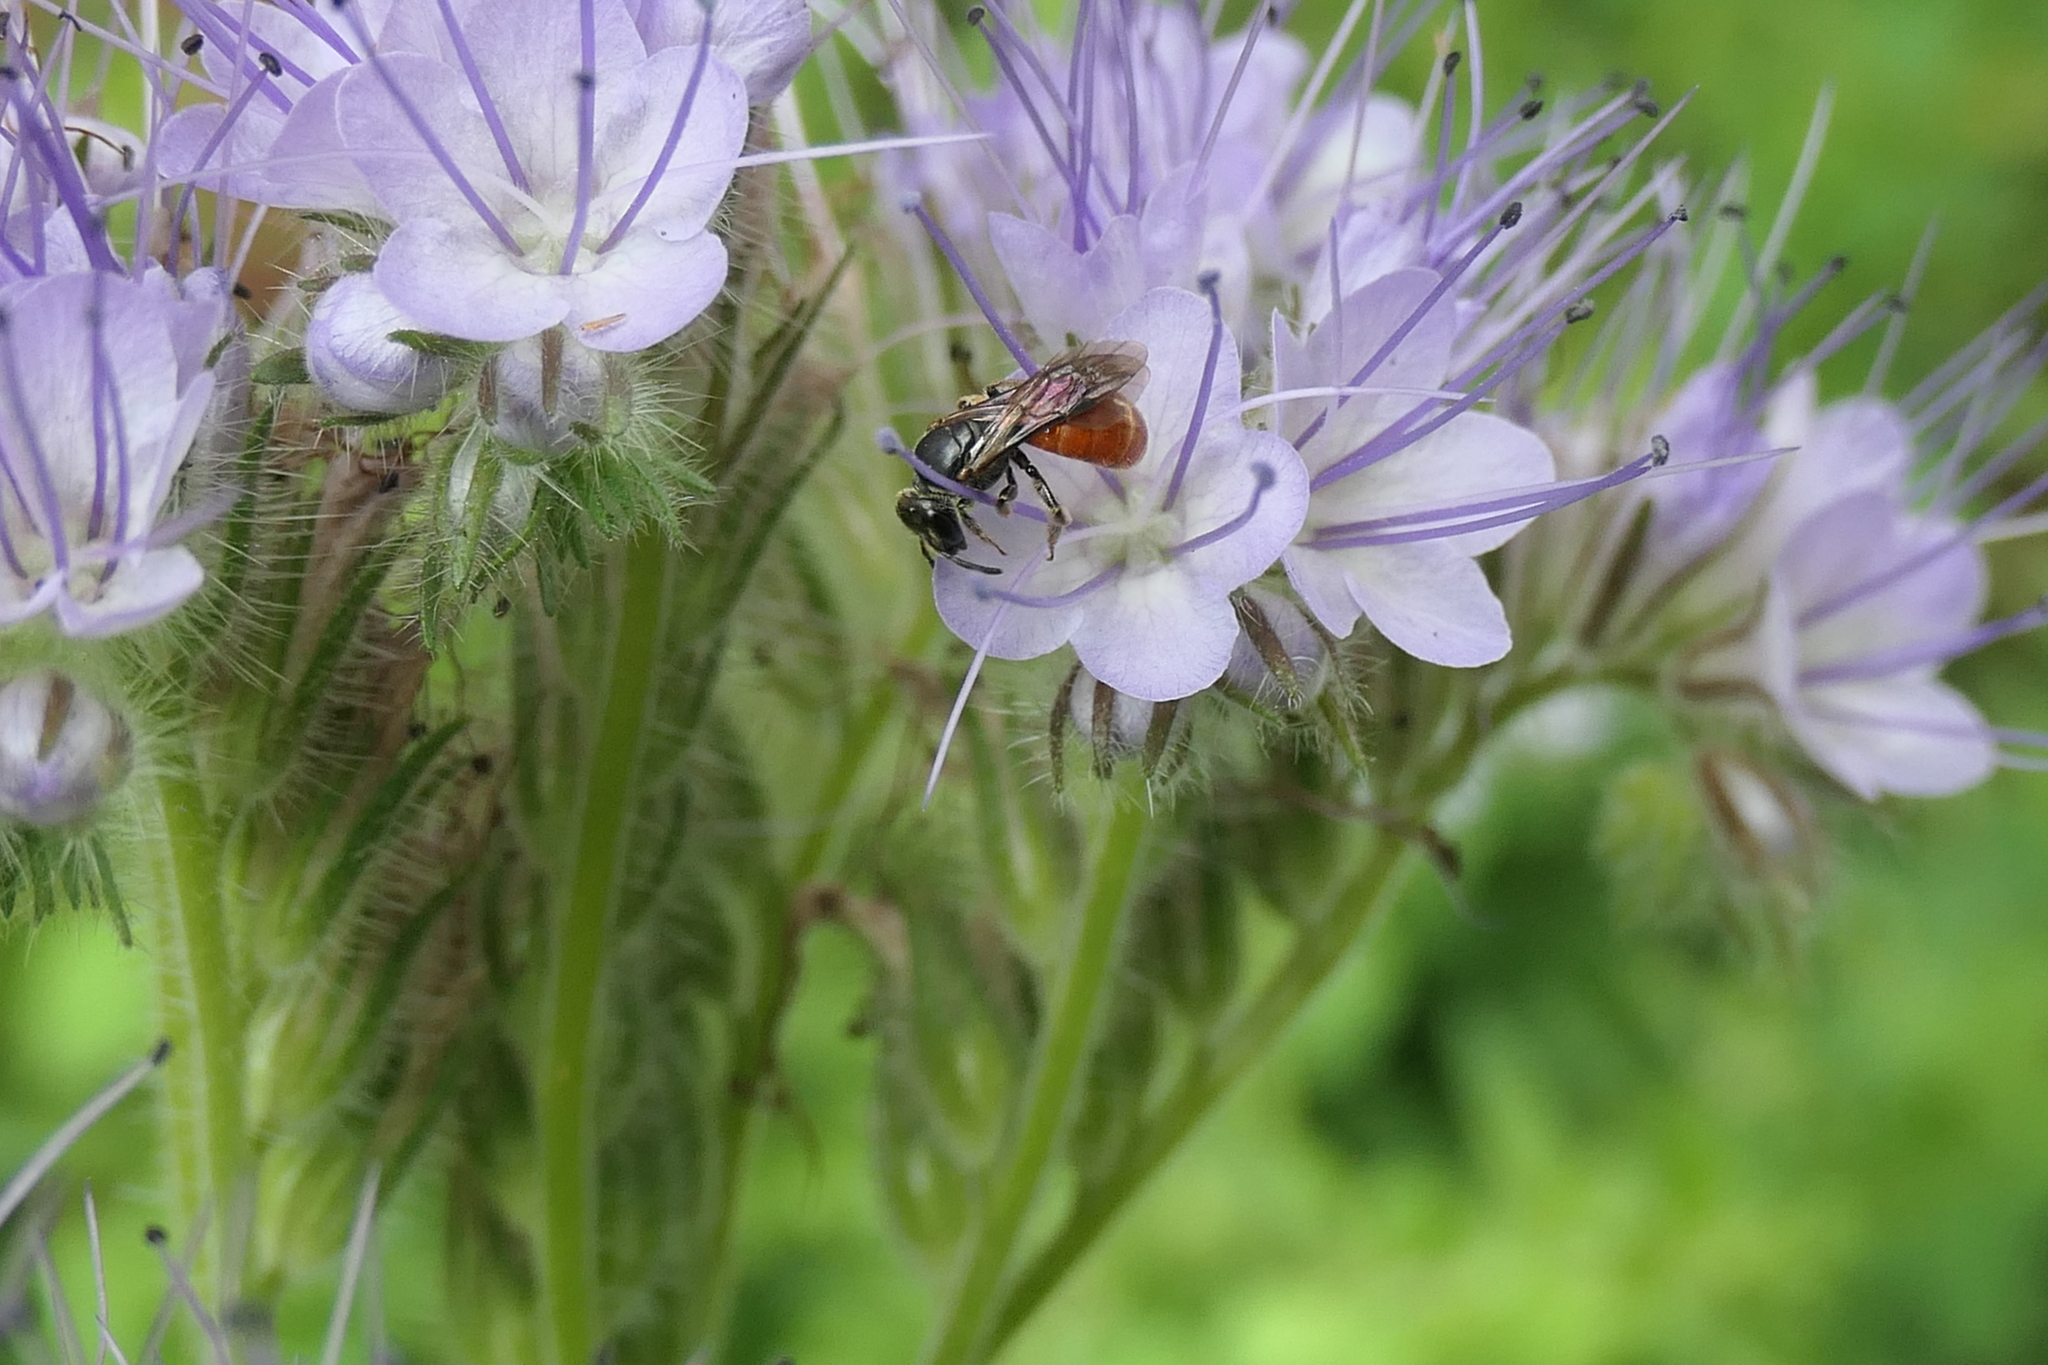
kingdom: Animalia
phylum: Arthropoda
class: Insecta
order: Hymenoptera
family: Halictidae
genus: Lasioglossum
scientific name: Lasioglossum ovaliceps
